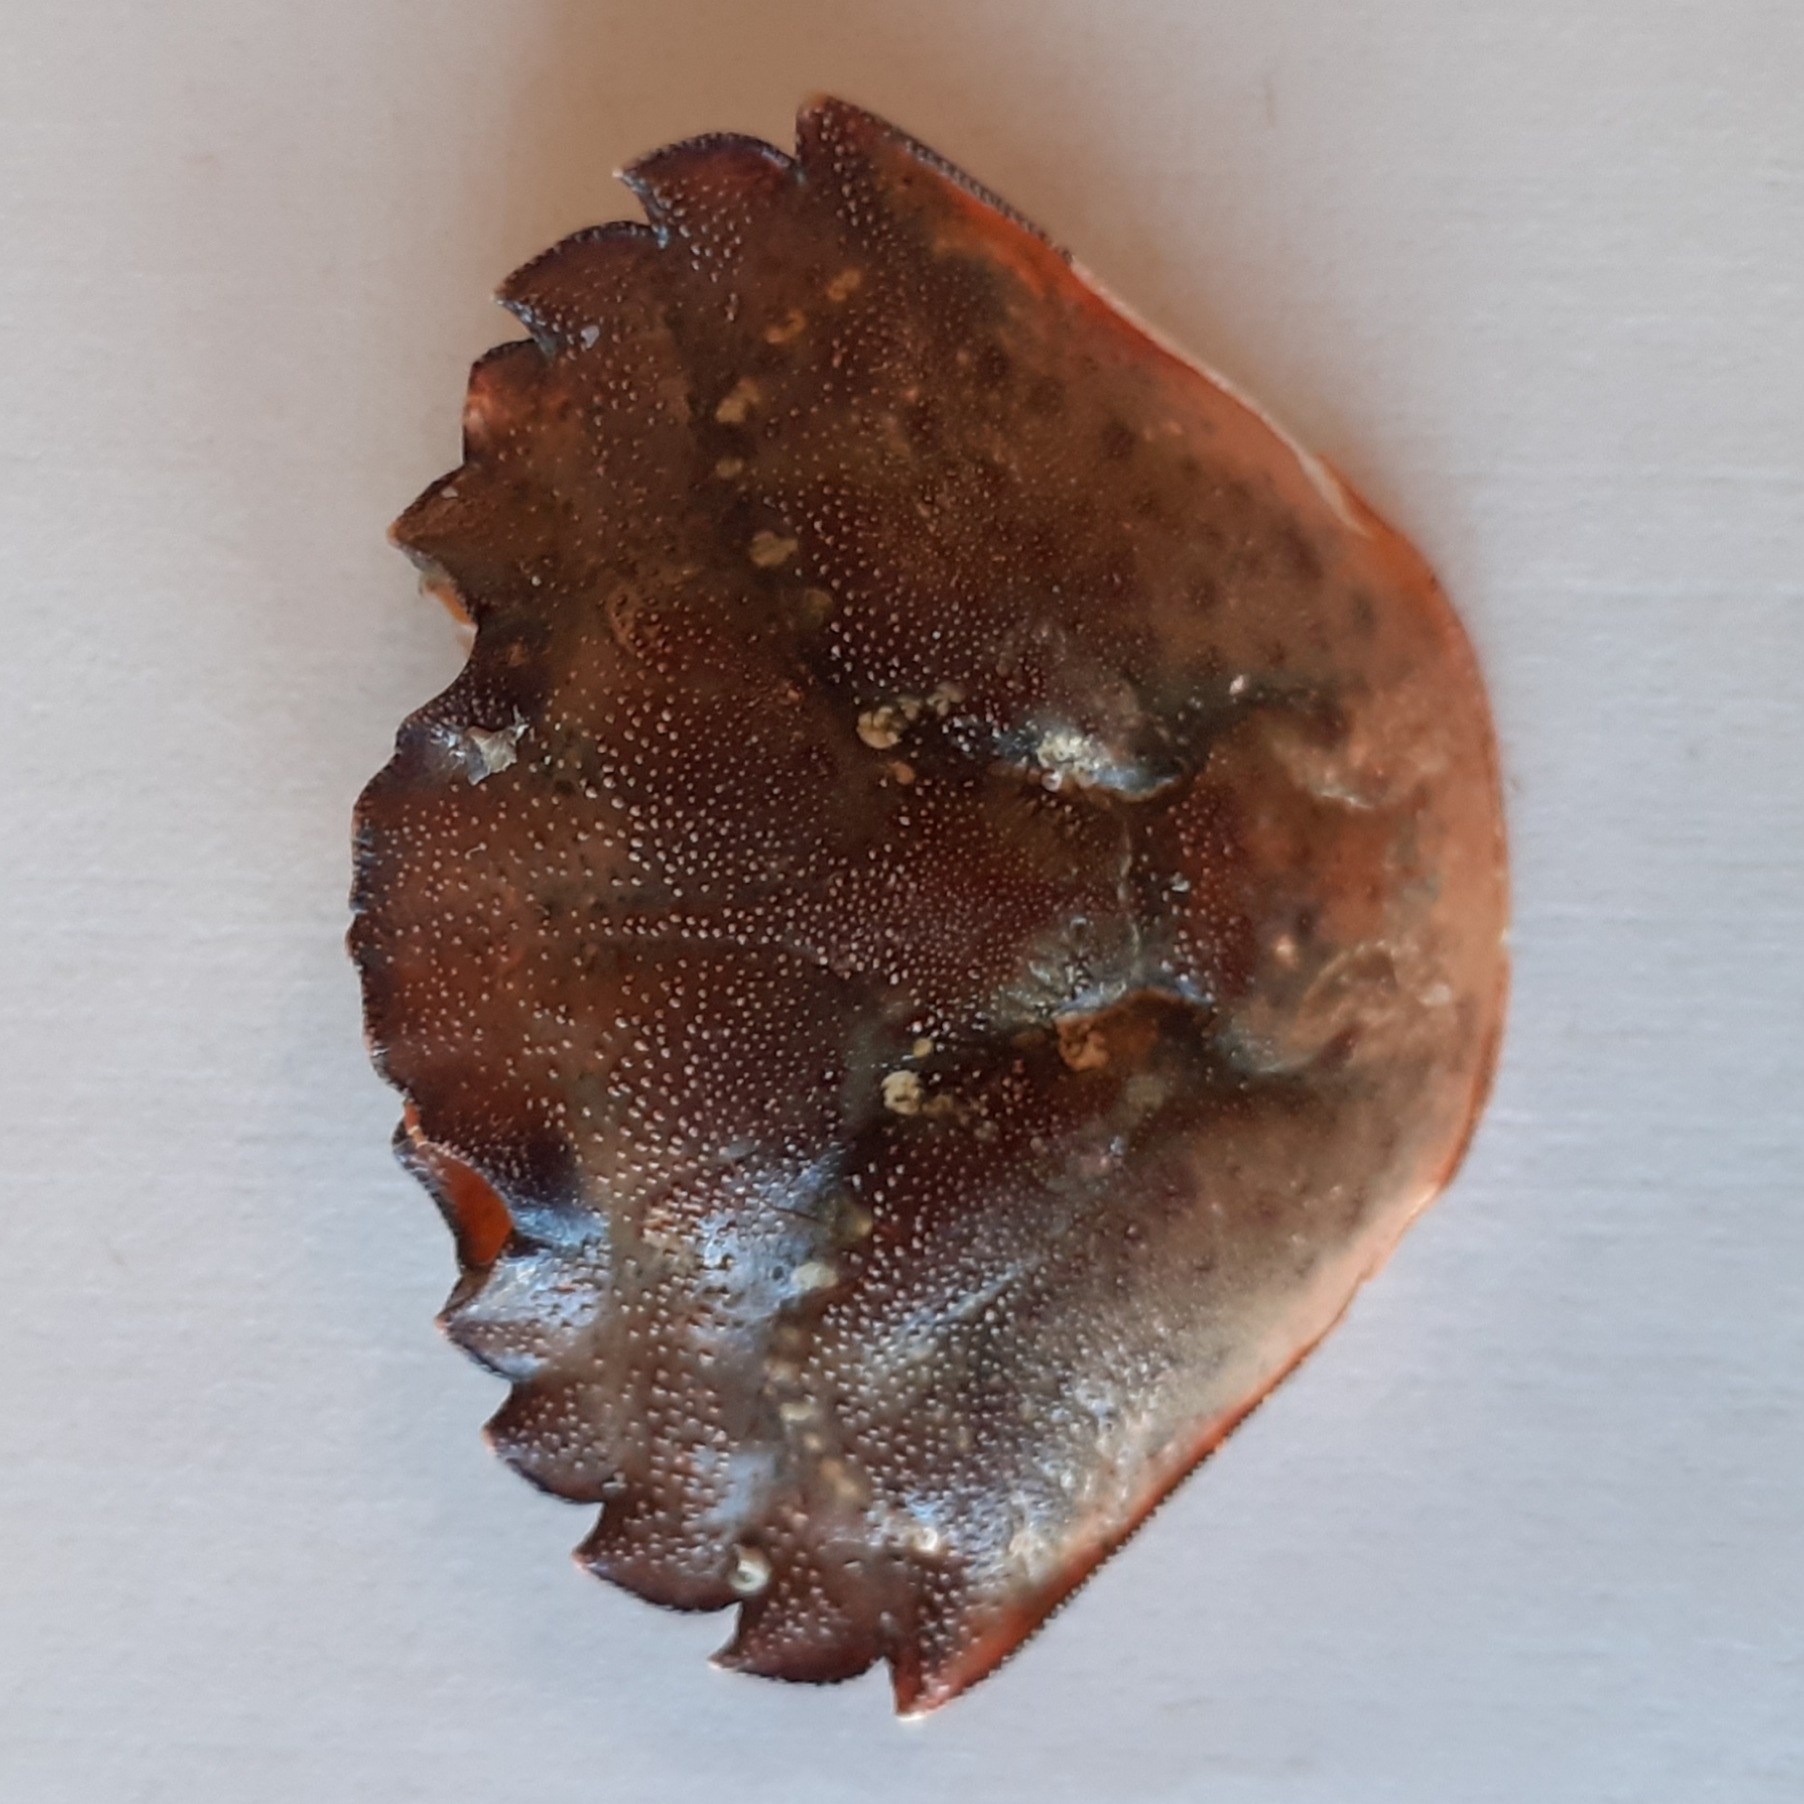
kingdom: Animalia
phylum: Arthropoda
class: Malacostraca
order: Decapoda
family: Carcinidae
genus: Carcinus
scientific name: Carcinus maenas
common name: European green crab
